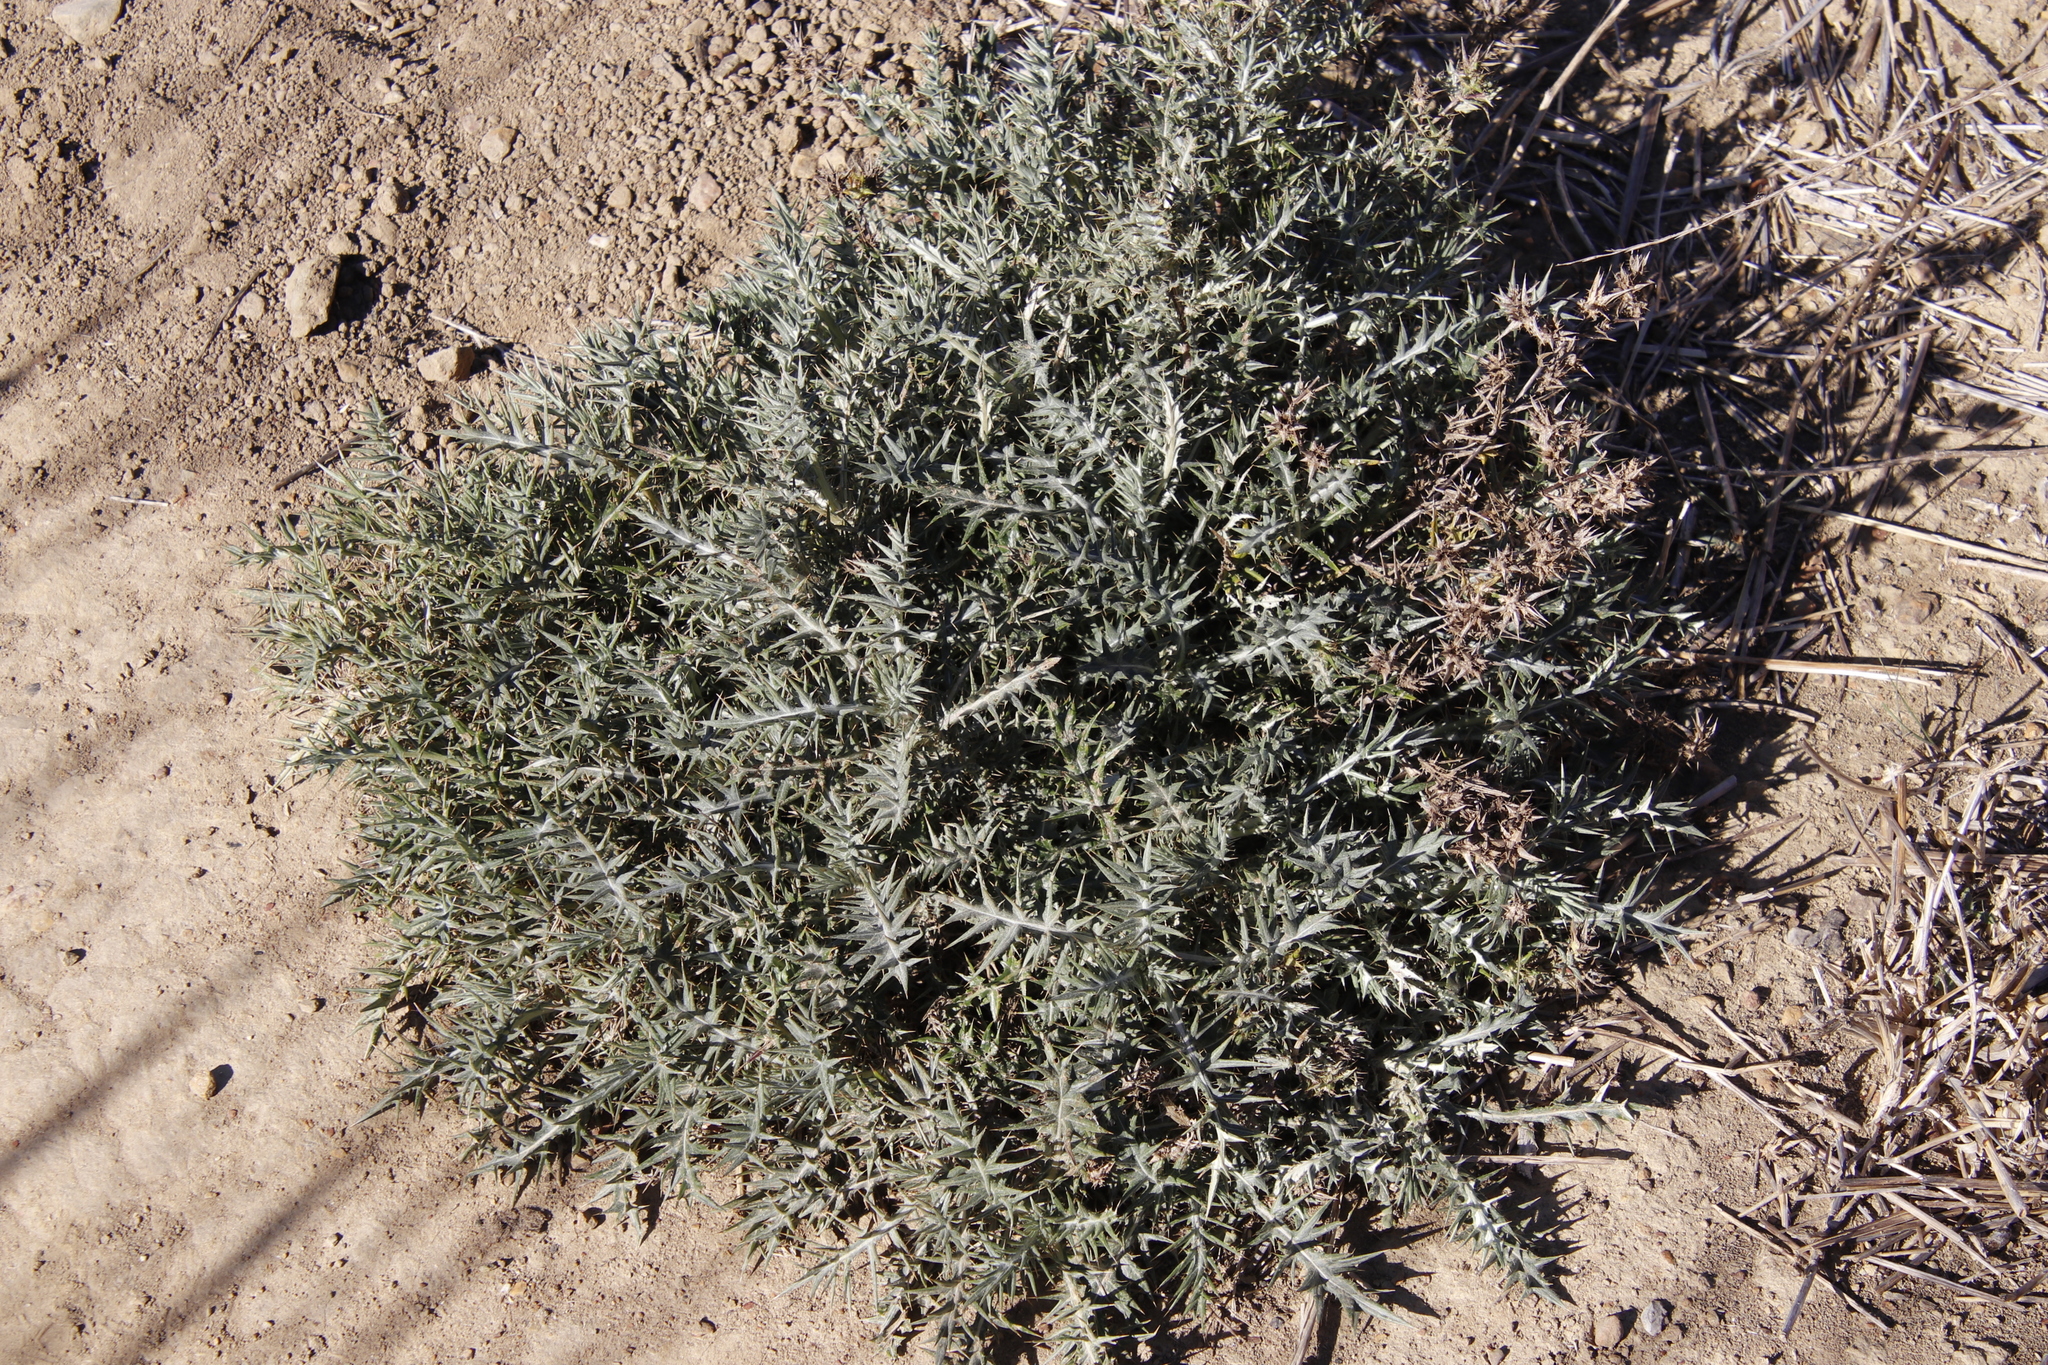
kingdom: Plantae
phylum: Tracheophyta
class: Magnoliopsida
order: Asterales
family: Asteraceae
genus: Berkheya
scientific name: Berkheya rigida
